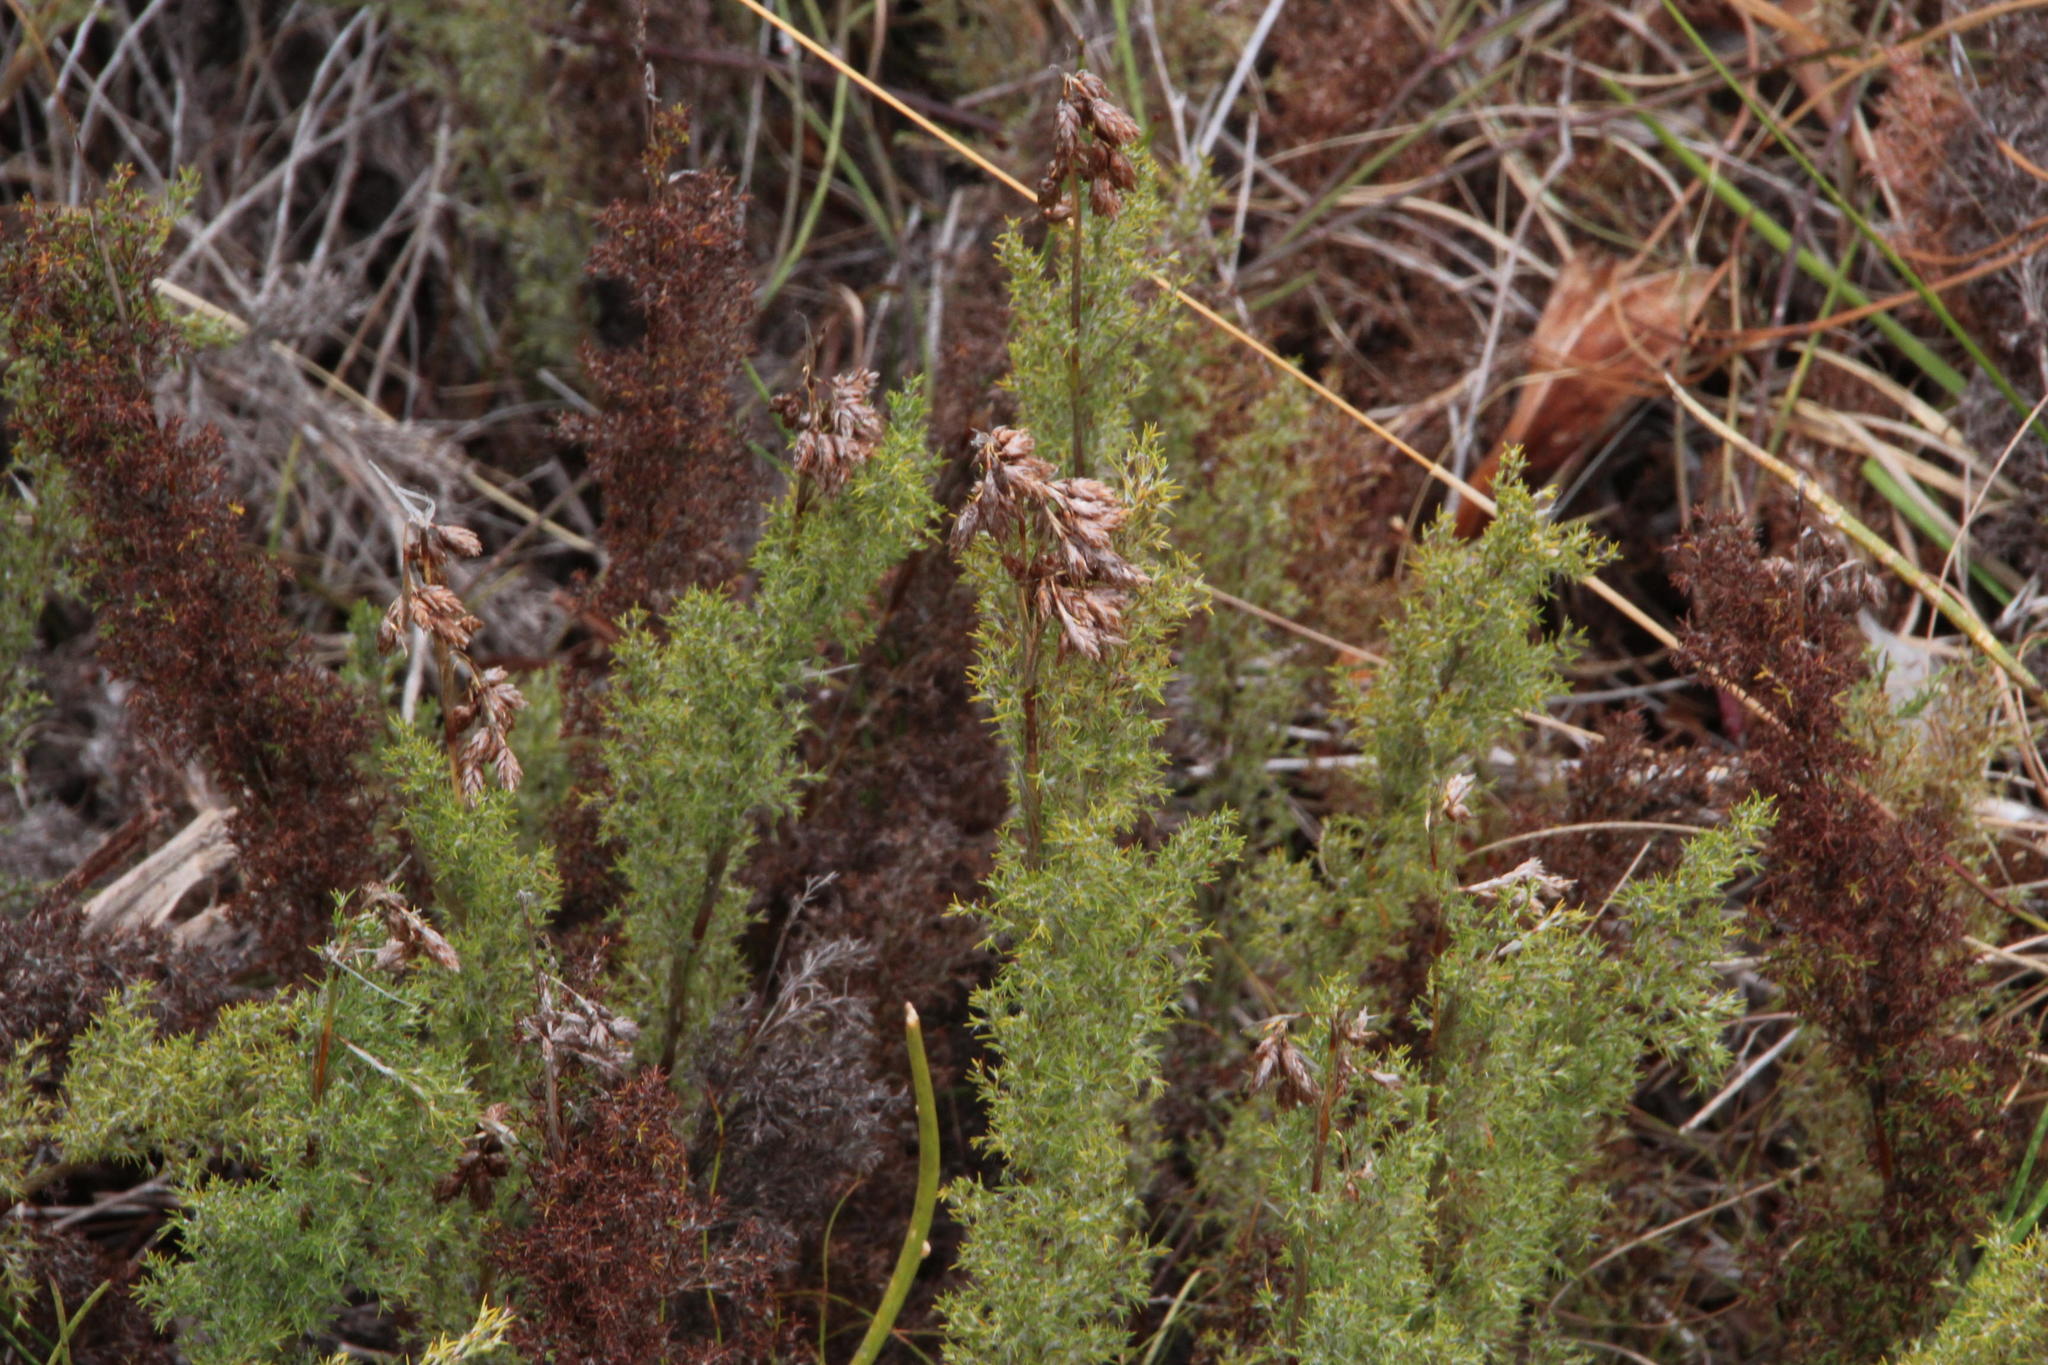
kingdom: Plantae
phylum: Tracheophyta
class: Liliopsida
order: Poales
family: Restionaceae
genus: Thamnochortus
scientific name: Thamnochortus fruticosus
